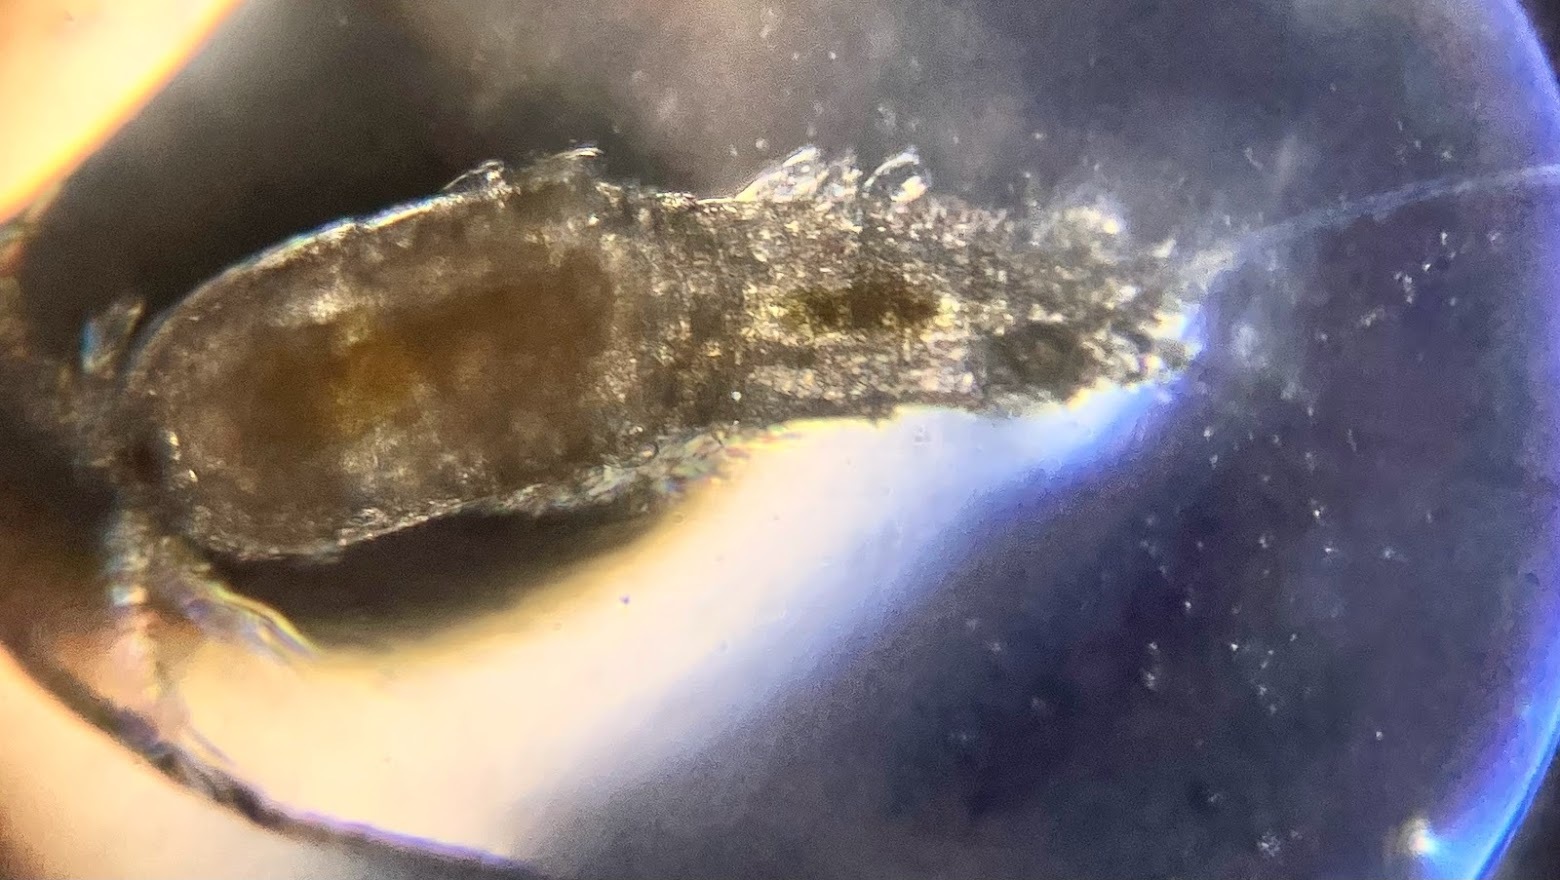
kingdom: Animalia
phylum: Arthropoda
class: Copepoda
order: Harpacticoida
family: Canthocamptidae
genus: Attheyella
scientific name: Attheyella nordenskioldii
